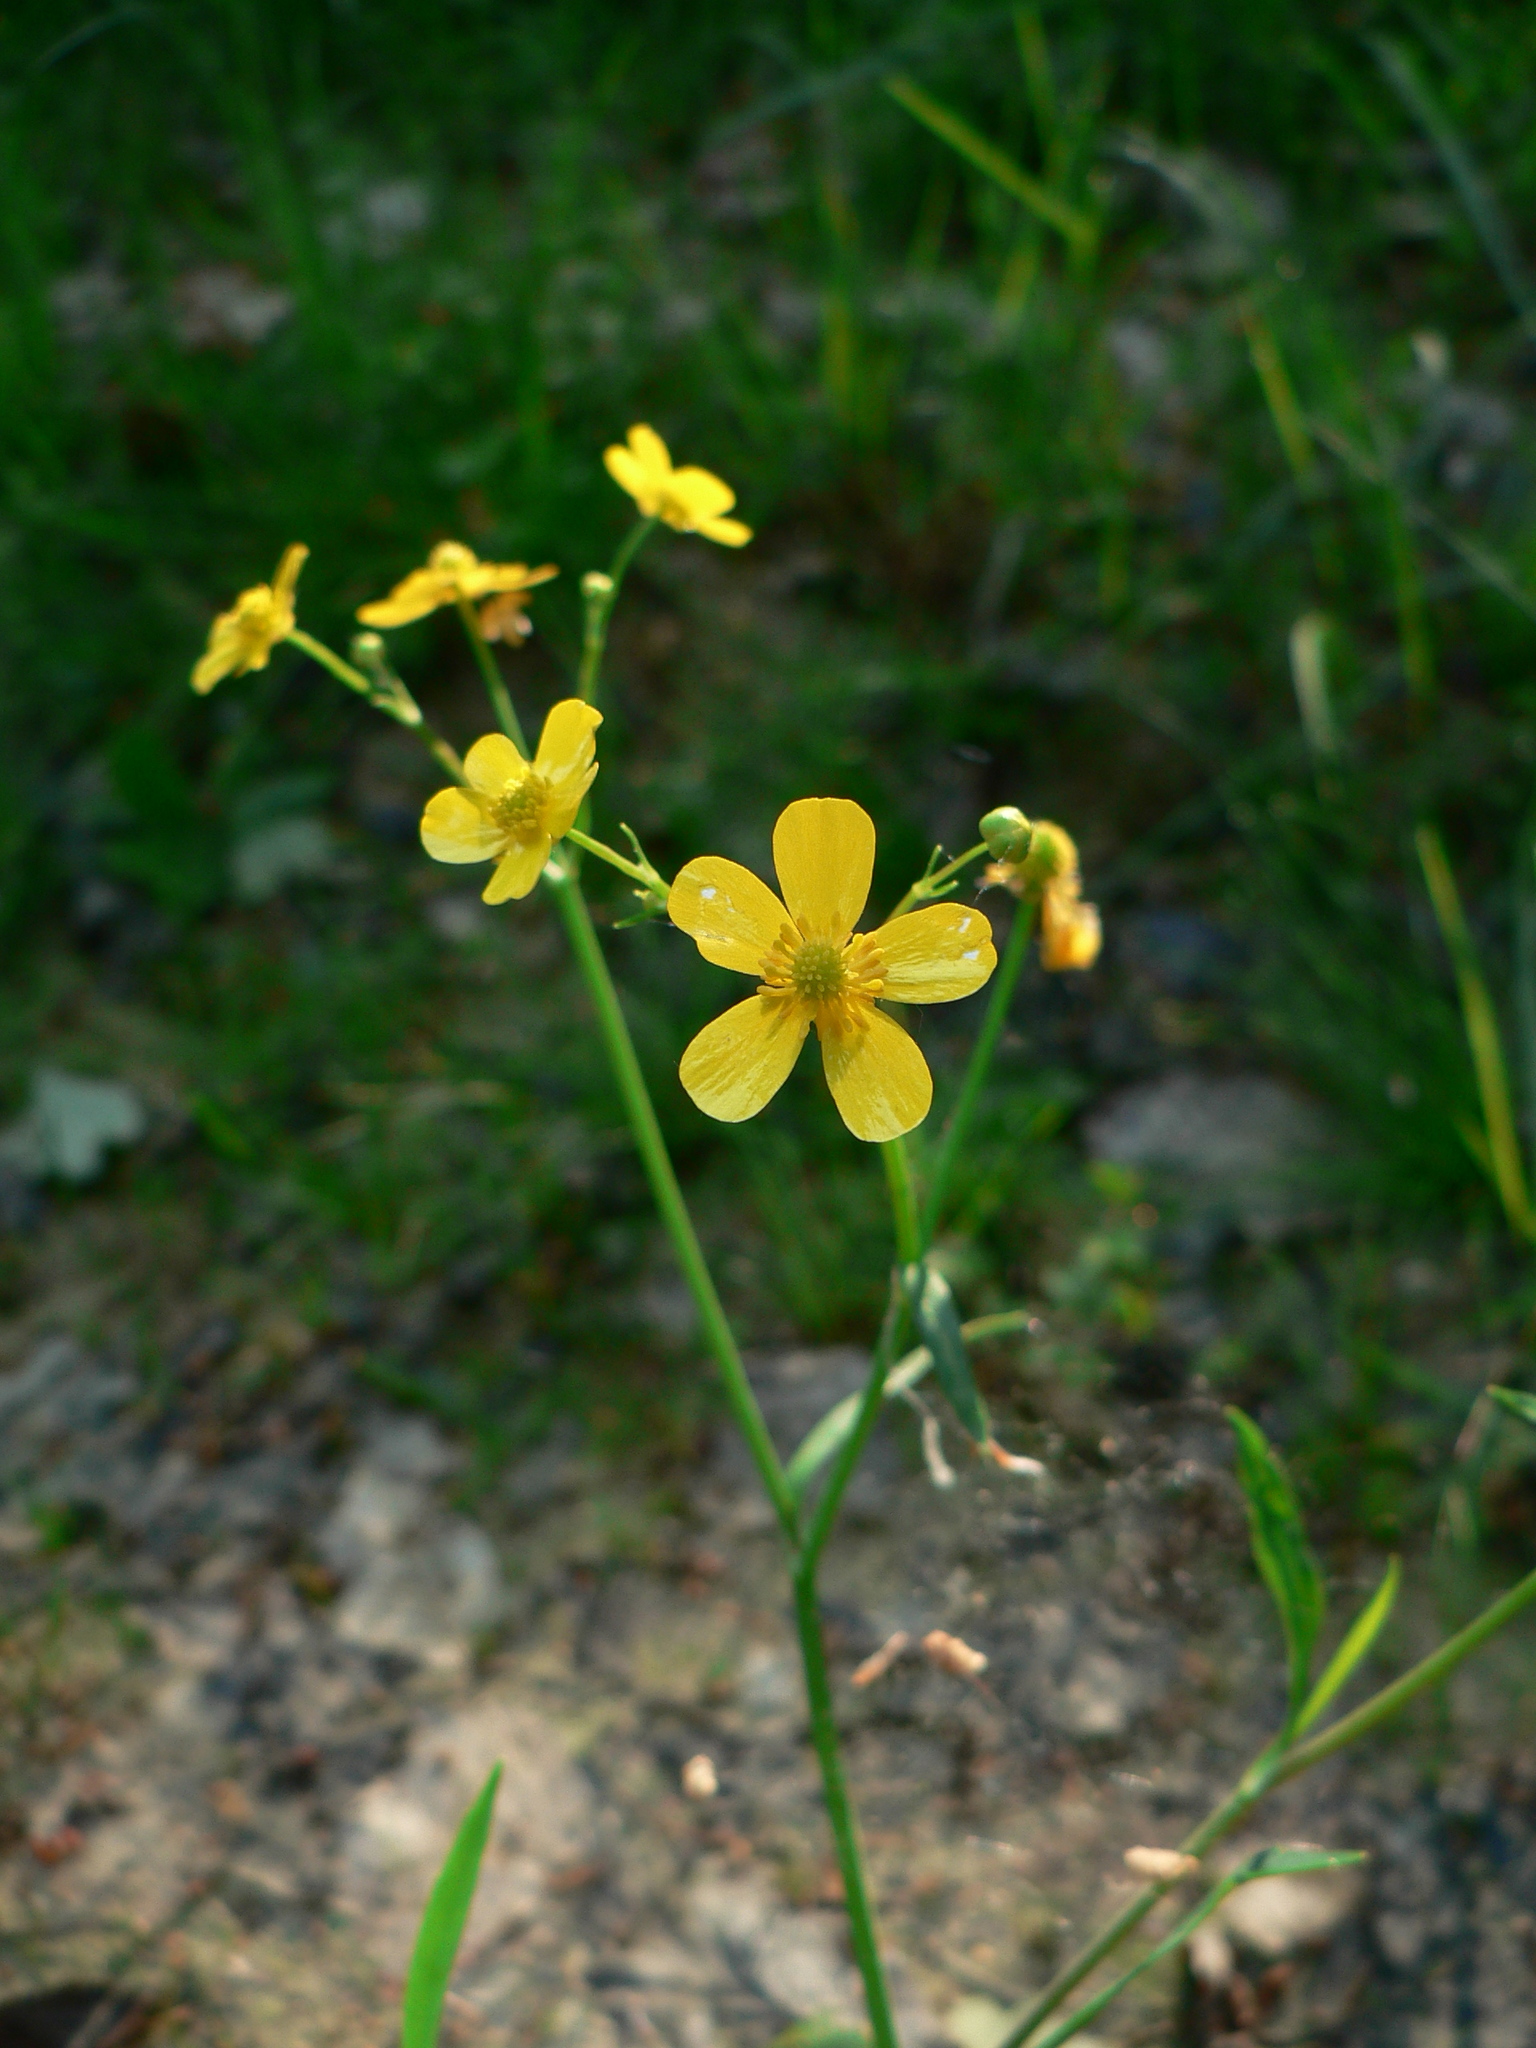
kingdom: Plantae
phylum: Tracheophyta
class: Magnoliopsida
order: Ranunculales
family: Ranunculaceae
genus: Ranunculus
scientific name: Ranunculus flammula
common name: Lesser spearwort
